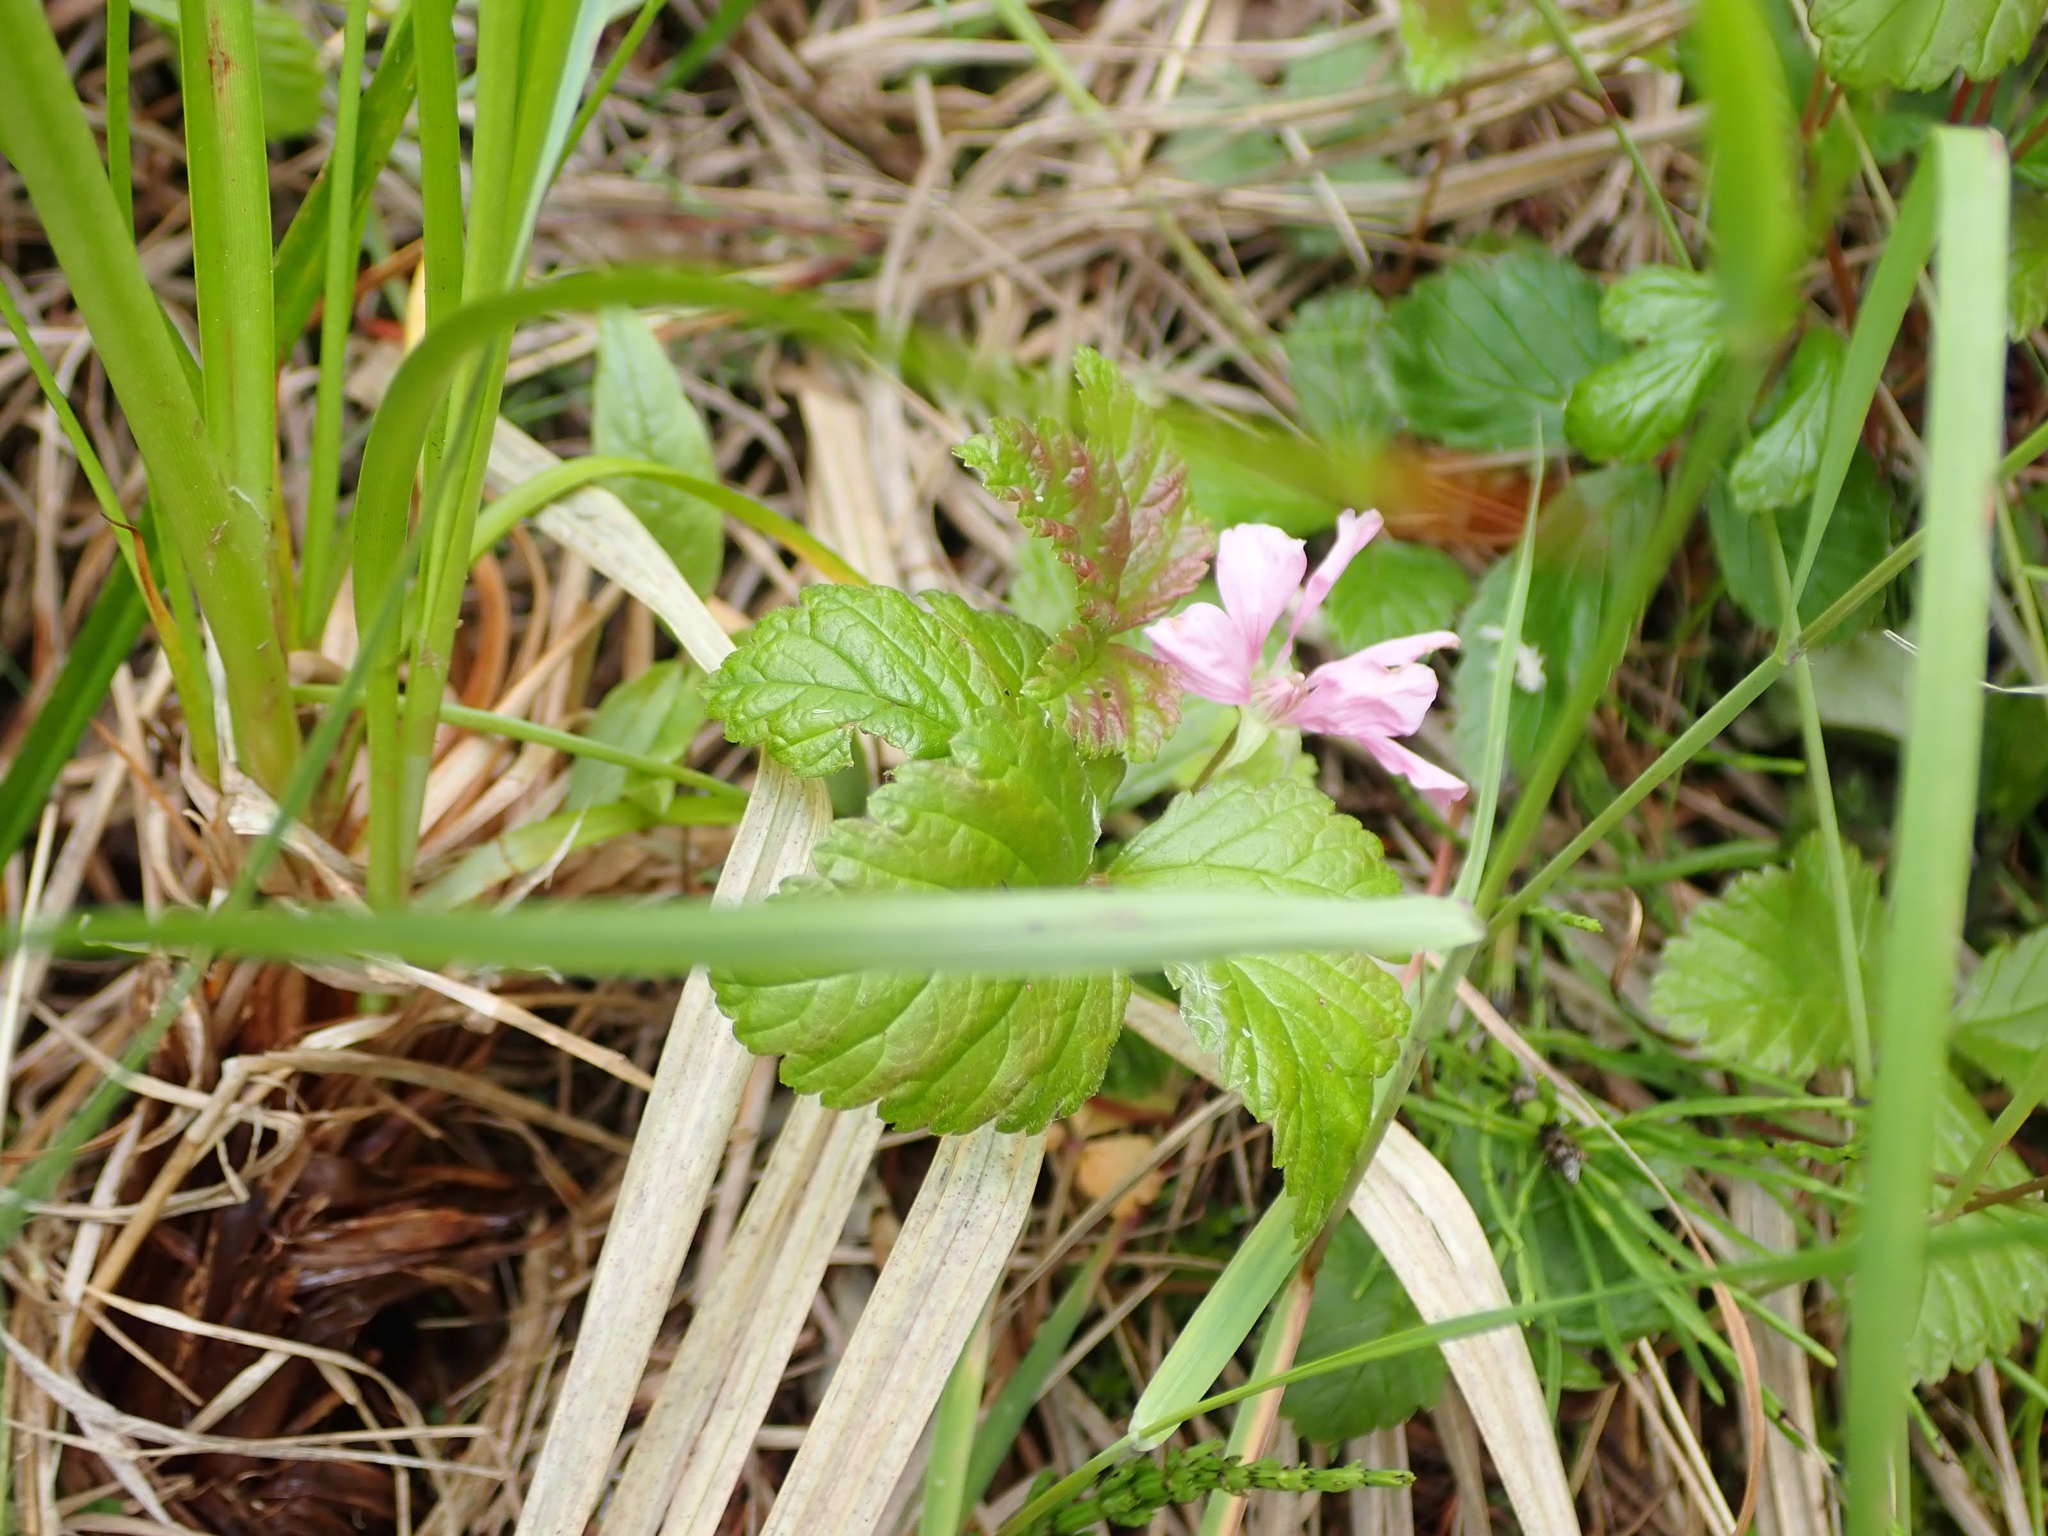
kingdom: Plantae
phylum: Tracheophyta
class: Magnoliopsida
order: Rosales
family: Rosaceae
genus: Rubus
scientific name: Rubus arcticus
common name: Arctic bramble
